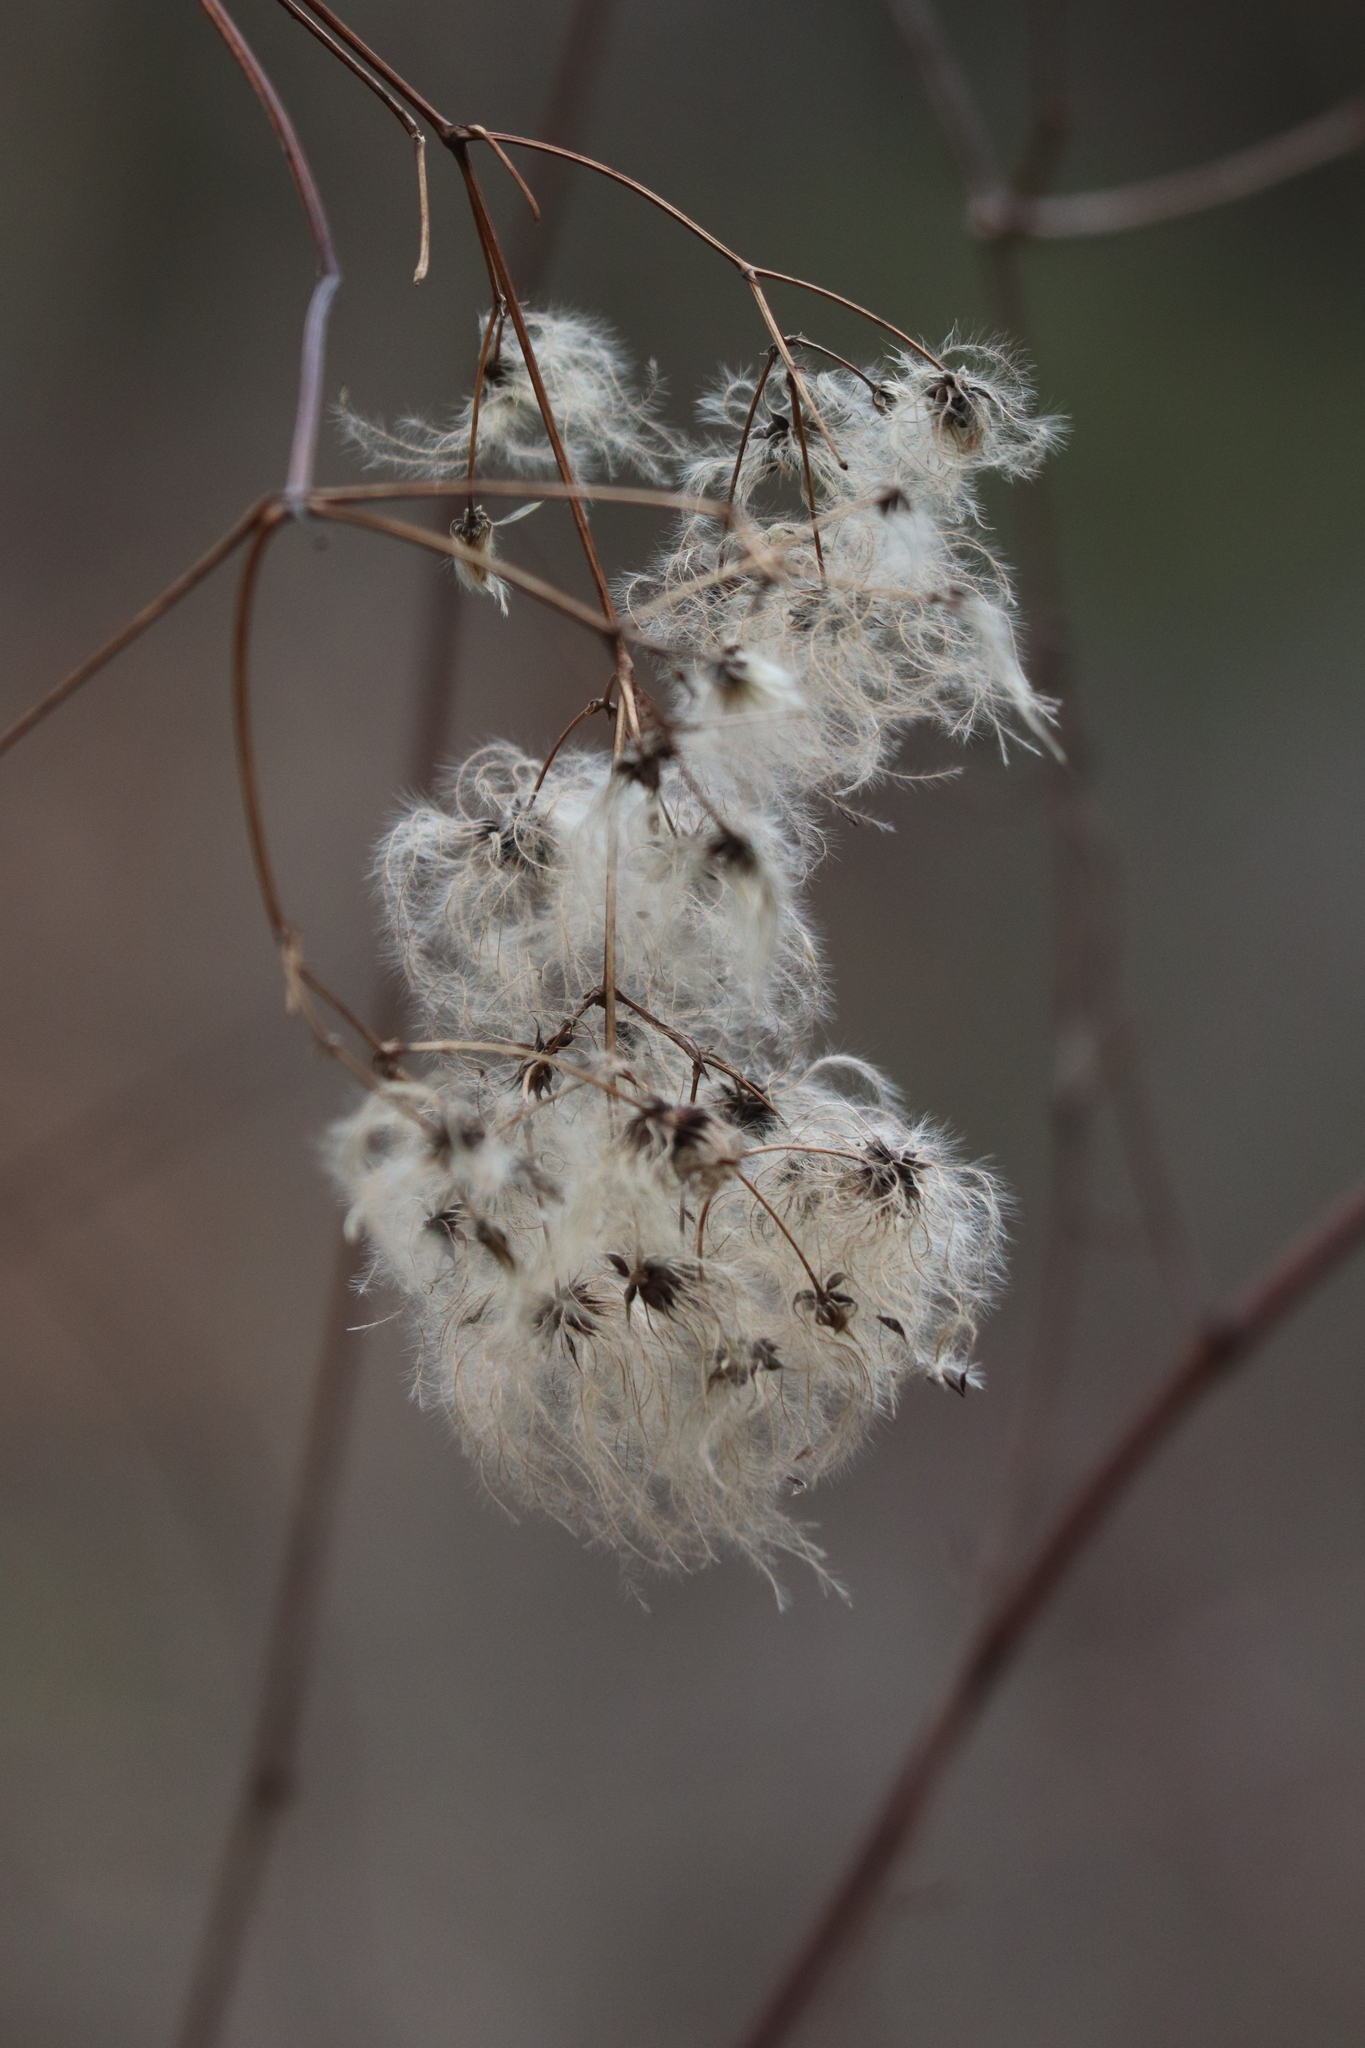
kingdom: Plantae
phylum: Tracheophyta
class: Magnoliopsida
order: Ranunculales
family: Ranunculaceae
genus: Clematis
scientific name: Clematis virginiana
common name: Virgin's-bower
